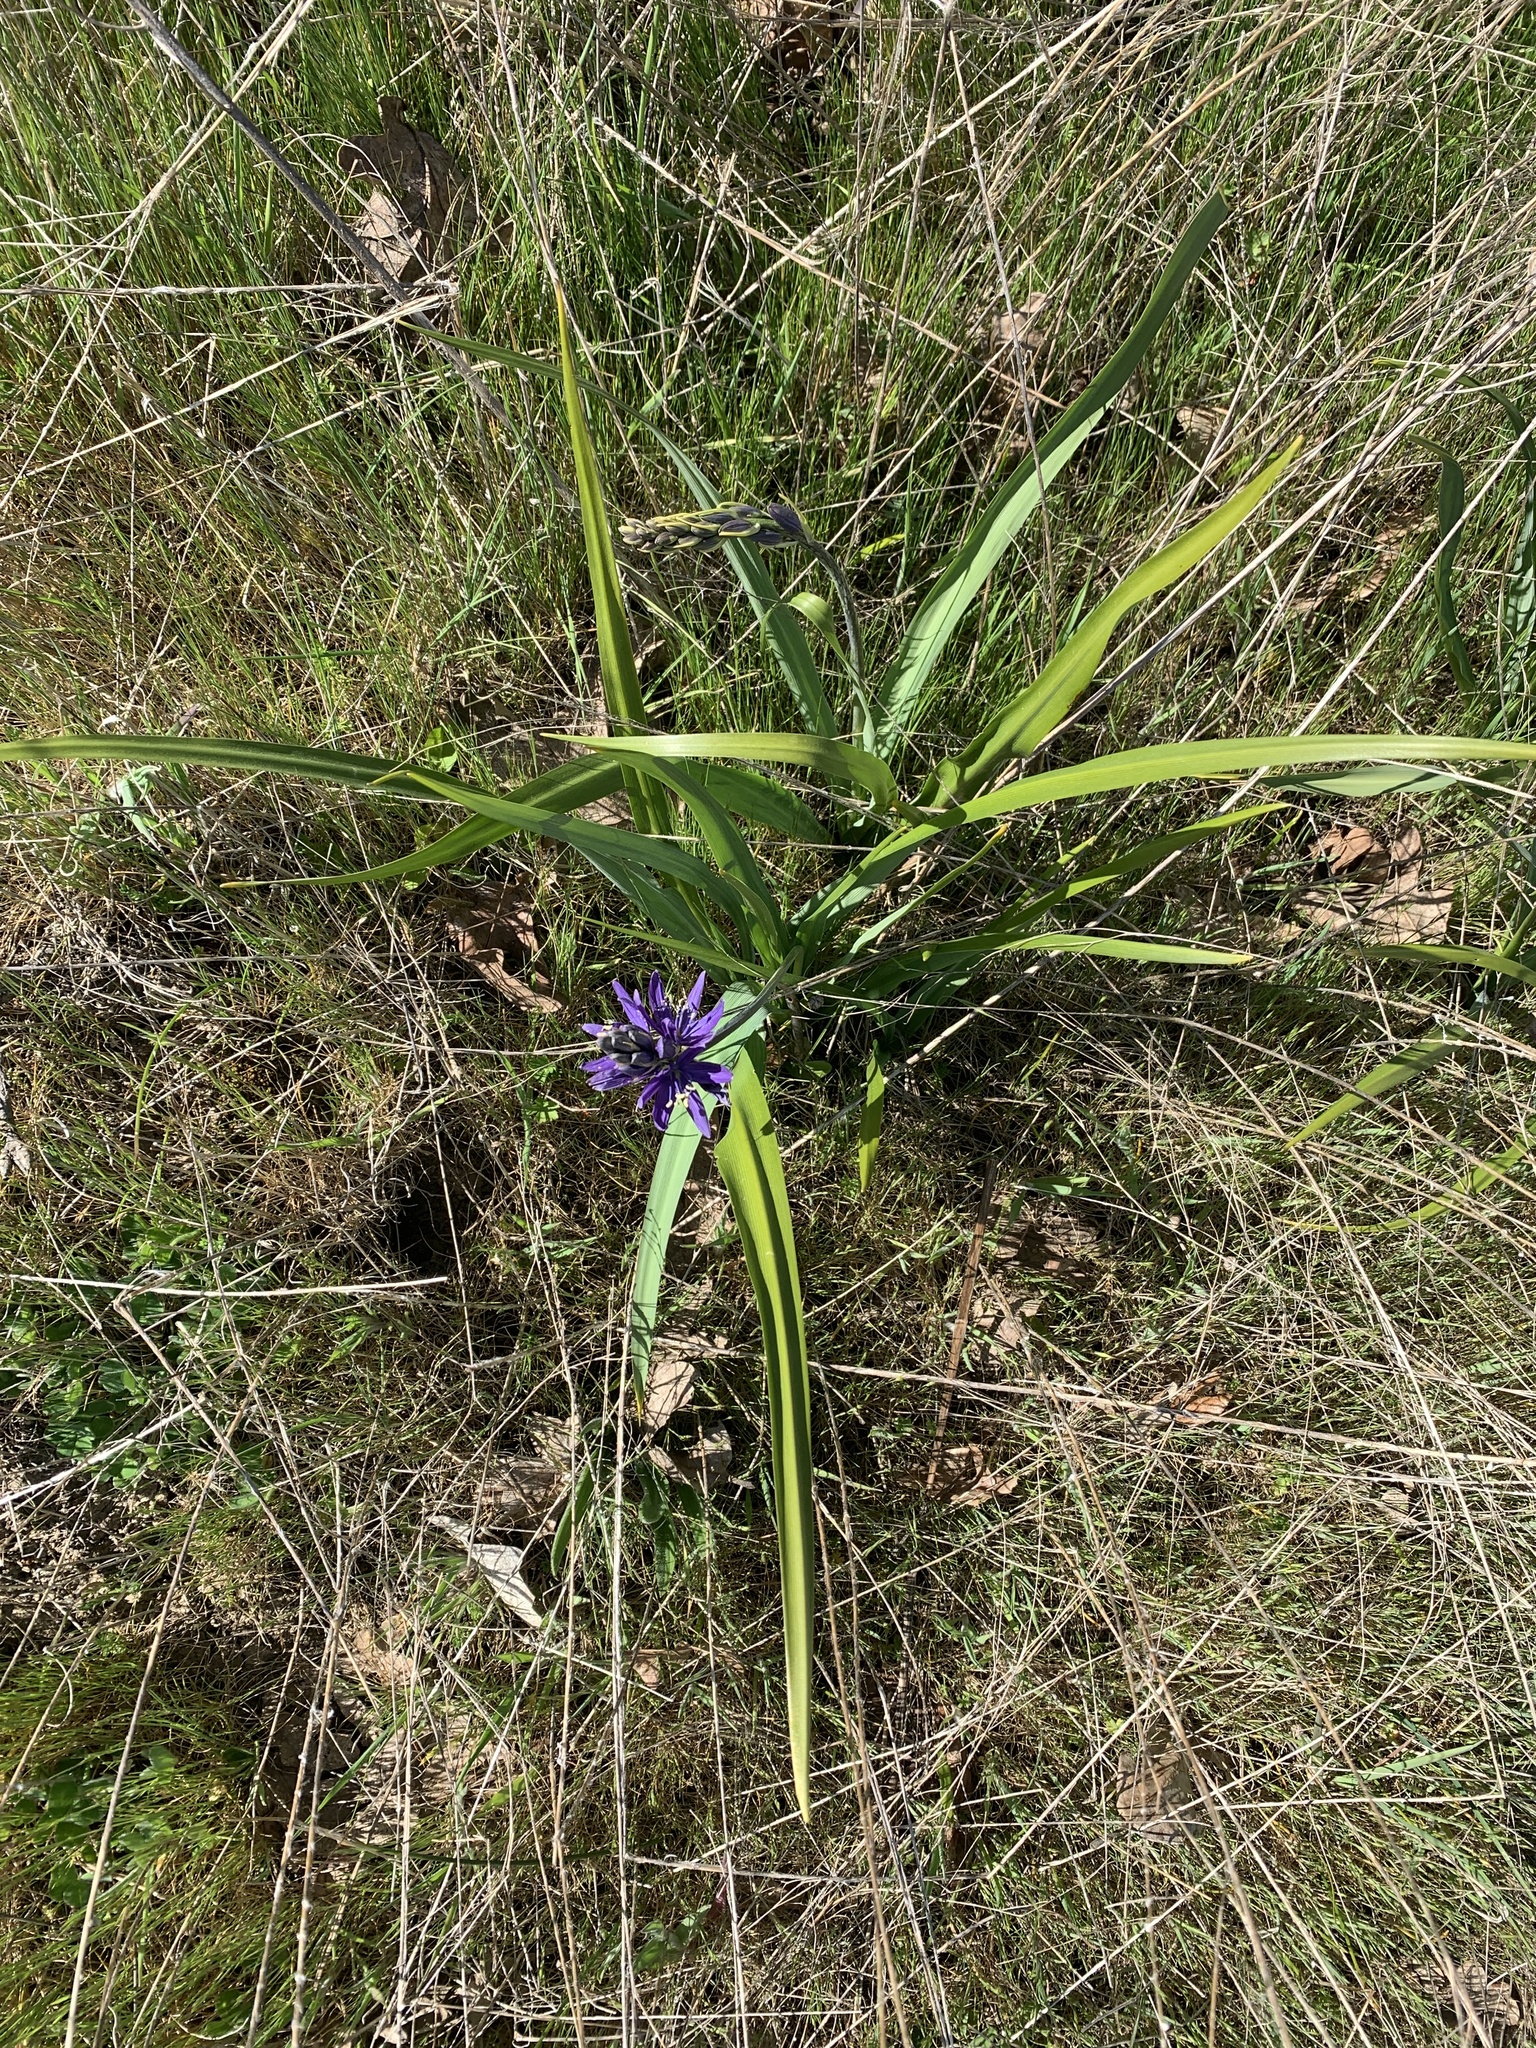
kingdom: Plantae
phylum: Tracheophyta
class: Liliopsida
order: Asparagales
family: Asparagaceae
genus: Camassia
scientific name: Camassia leichtlinii
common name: Leichtlin's camas
